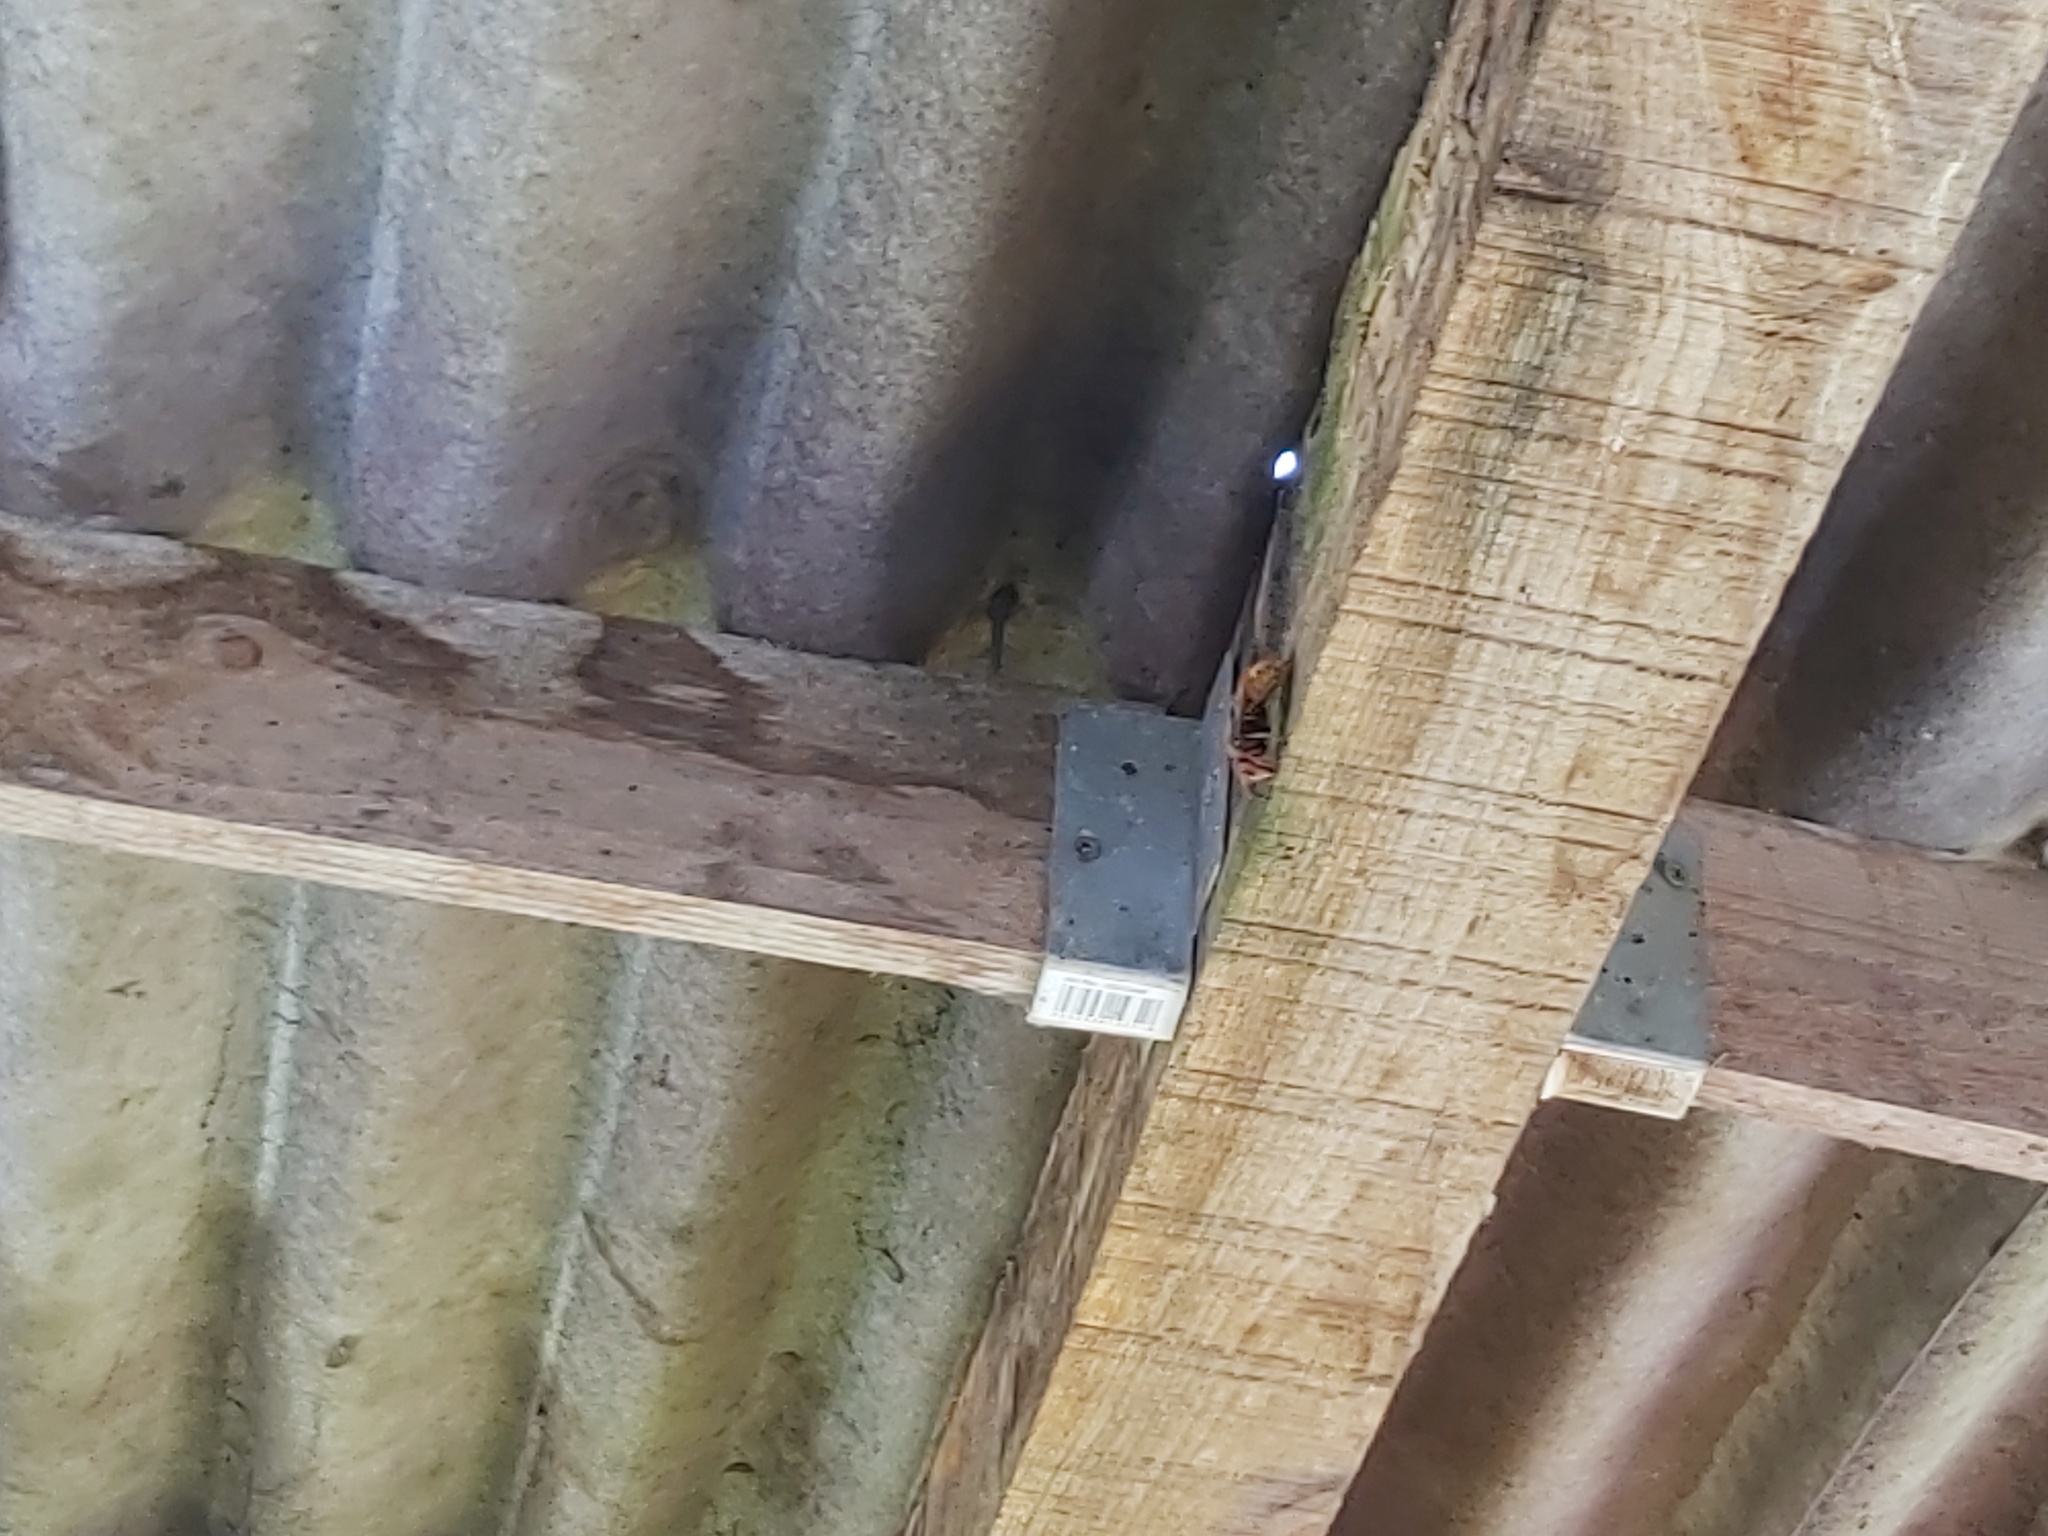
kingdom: Animalia
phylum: Arthropoda
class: Insecta
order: Hymenoptera
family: Vespidae
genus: Vespa
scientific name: Vespa crabro
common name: Hornet
